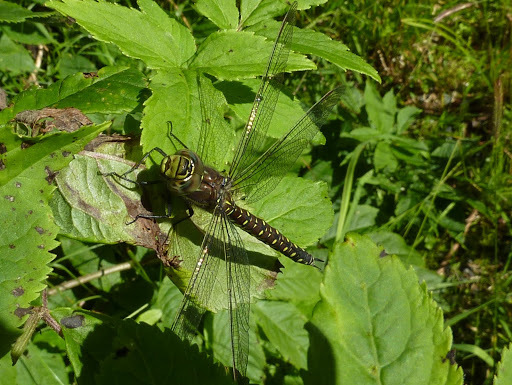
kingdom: Animalia
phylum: Arthropoda
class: Insecta
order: Odonata
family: Aeshnidae
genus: Aeshna
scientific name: Aeshna juncea
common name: Moorland hawker
